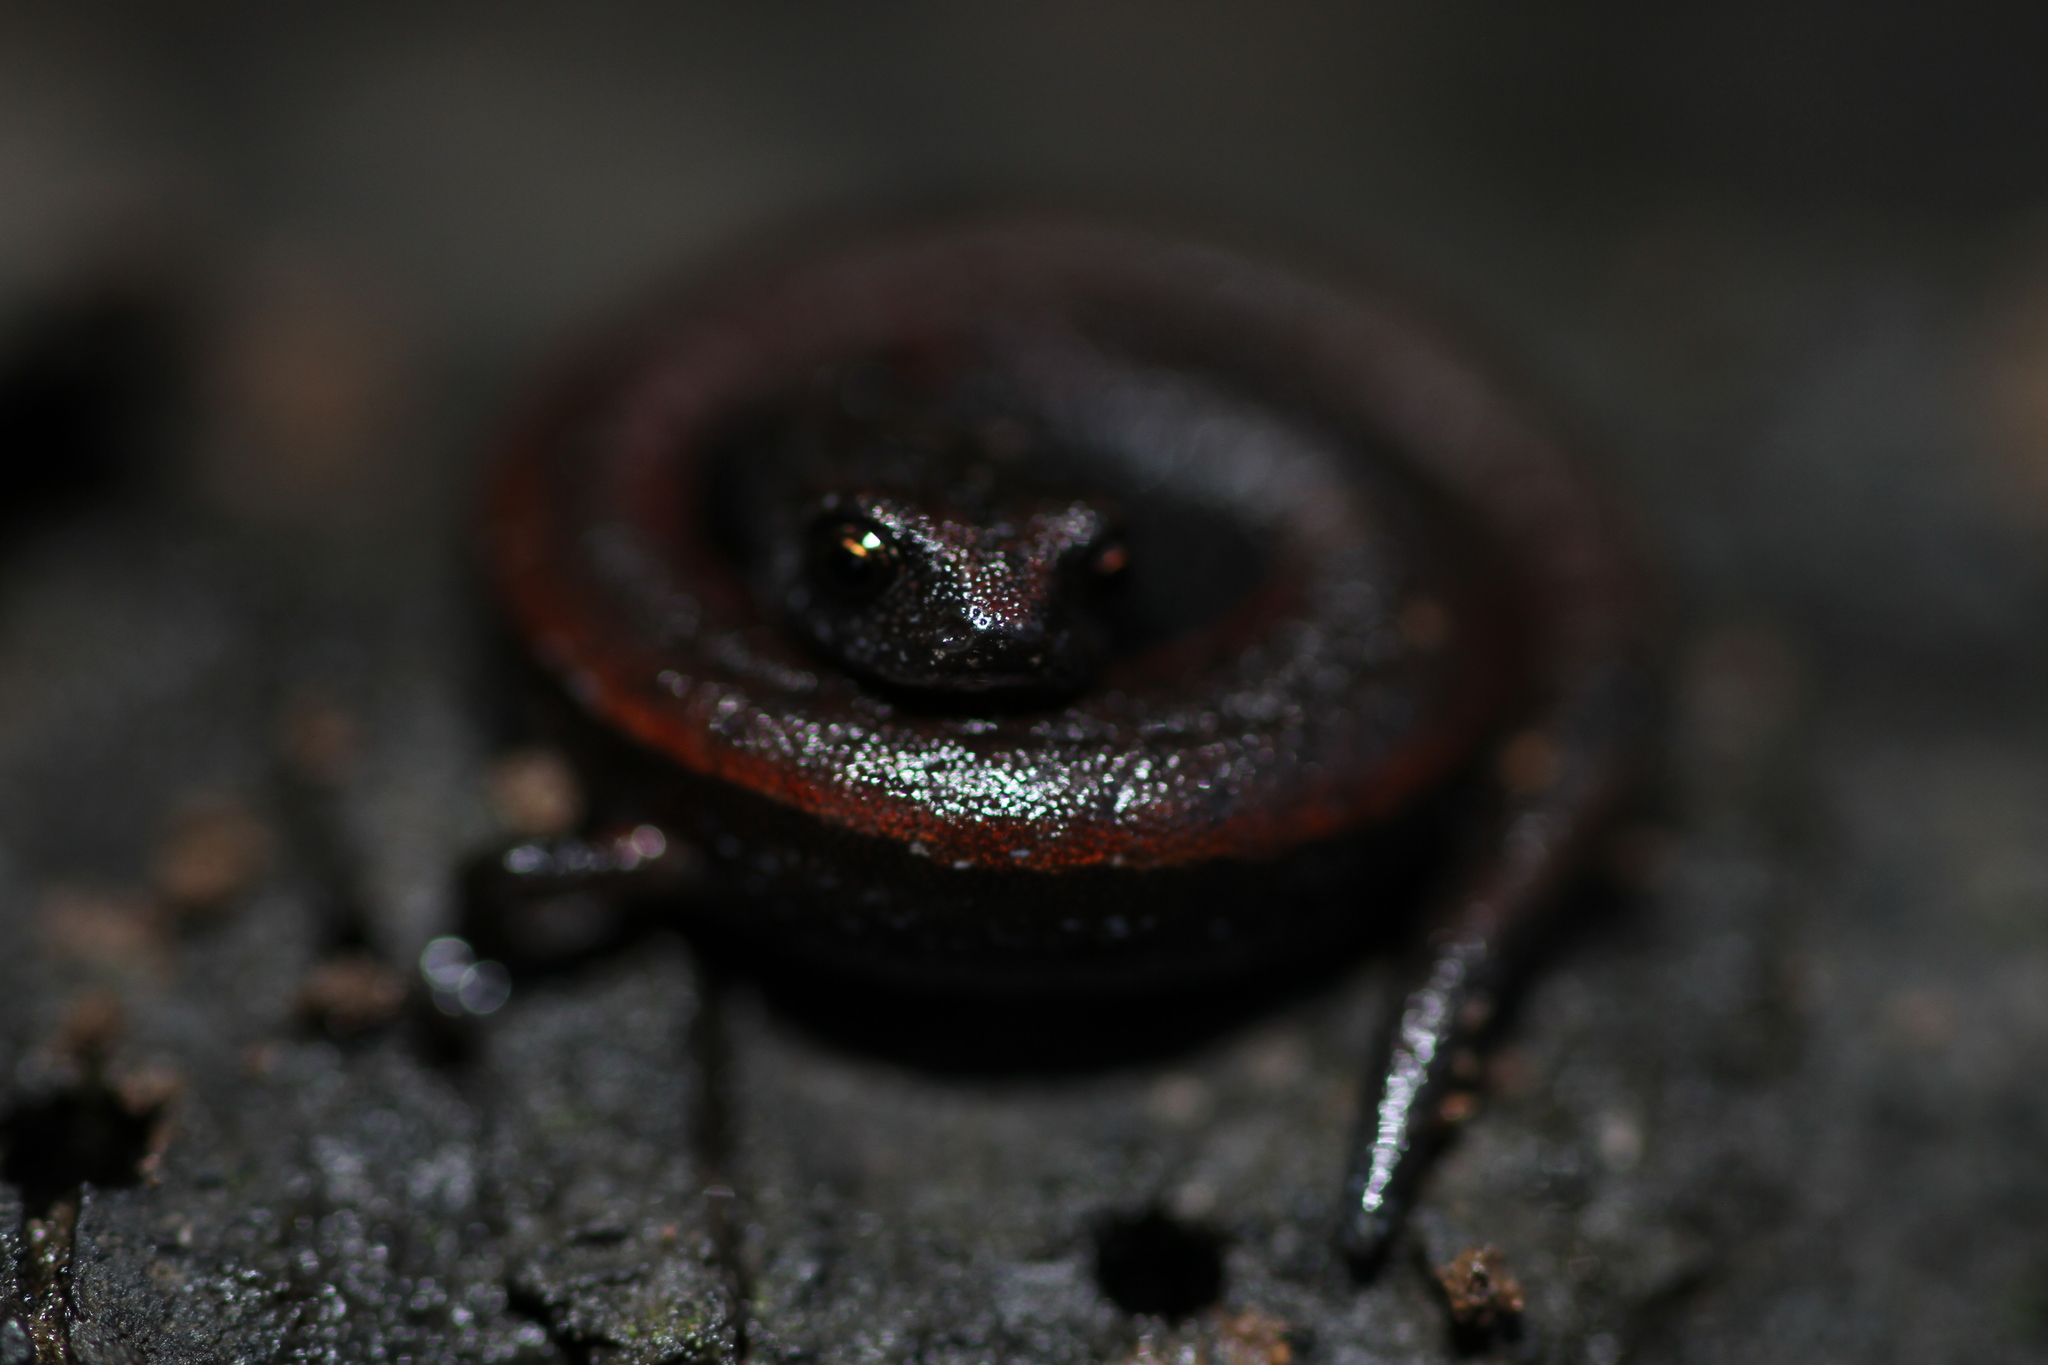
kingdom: Animalia
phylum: Chordata
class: Amphibia
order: Caudata
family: Plethodontidae
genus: Batrachoseps
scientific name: Batrachoseps attenuatus
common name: California slender salamander
